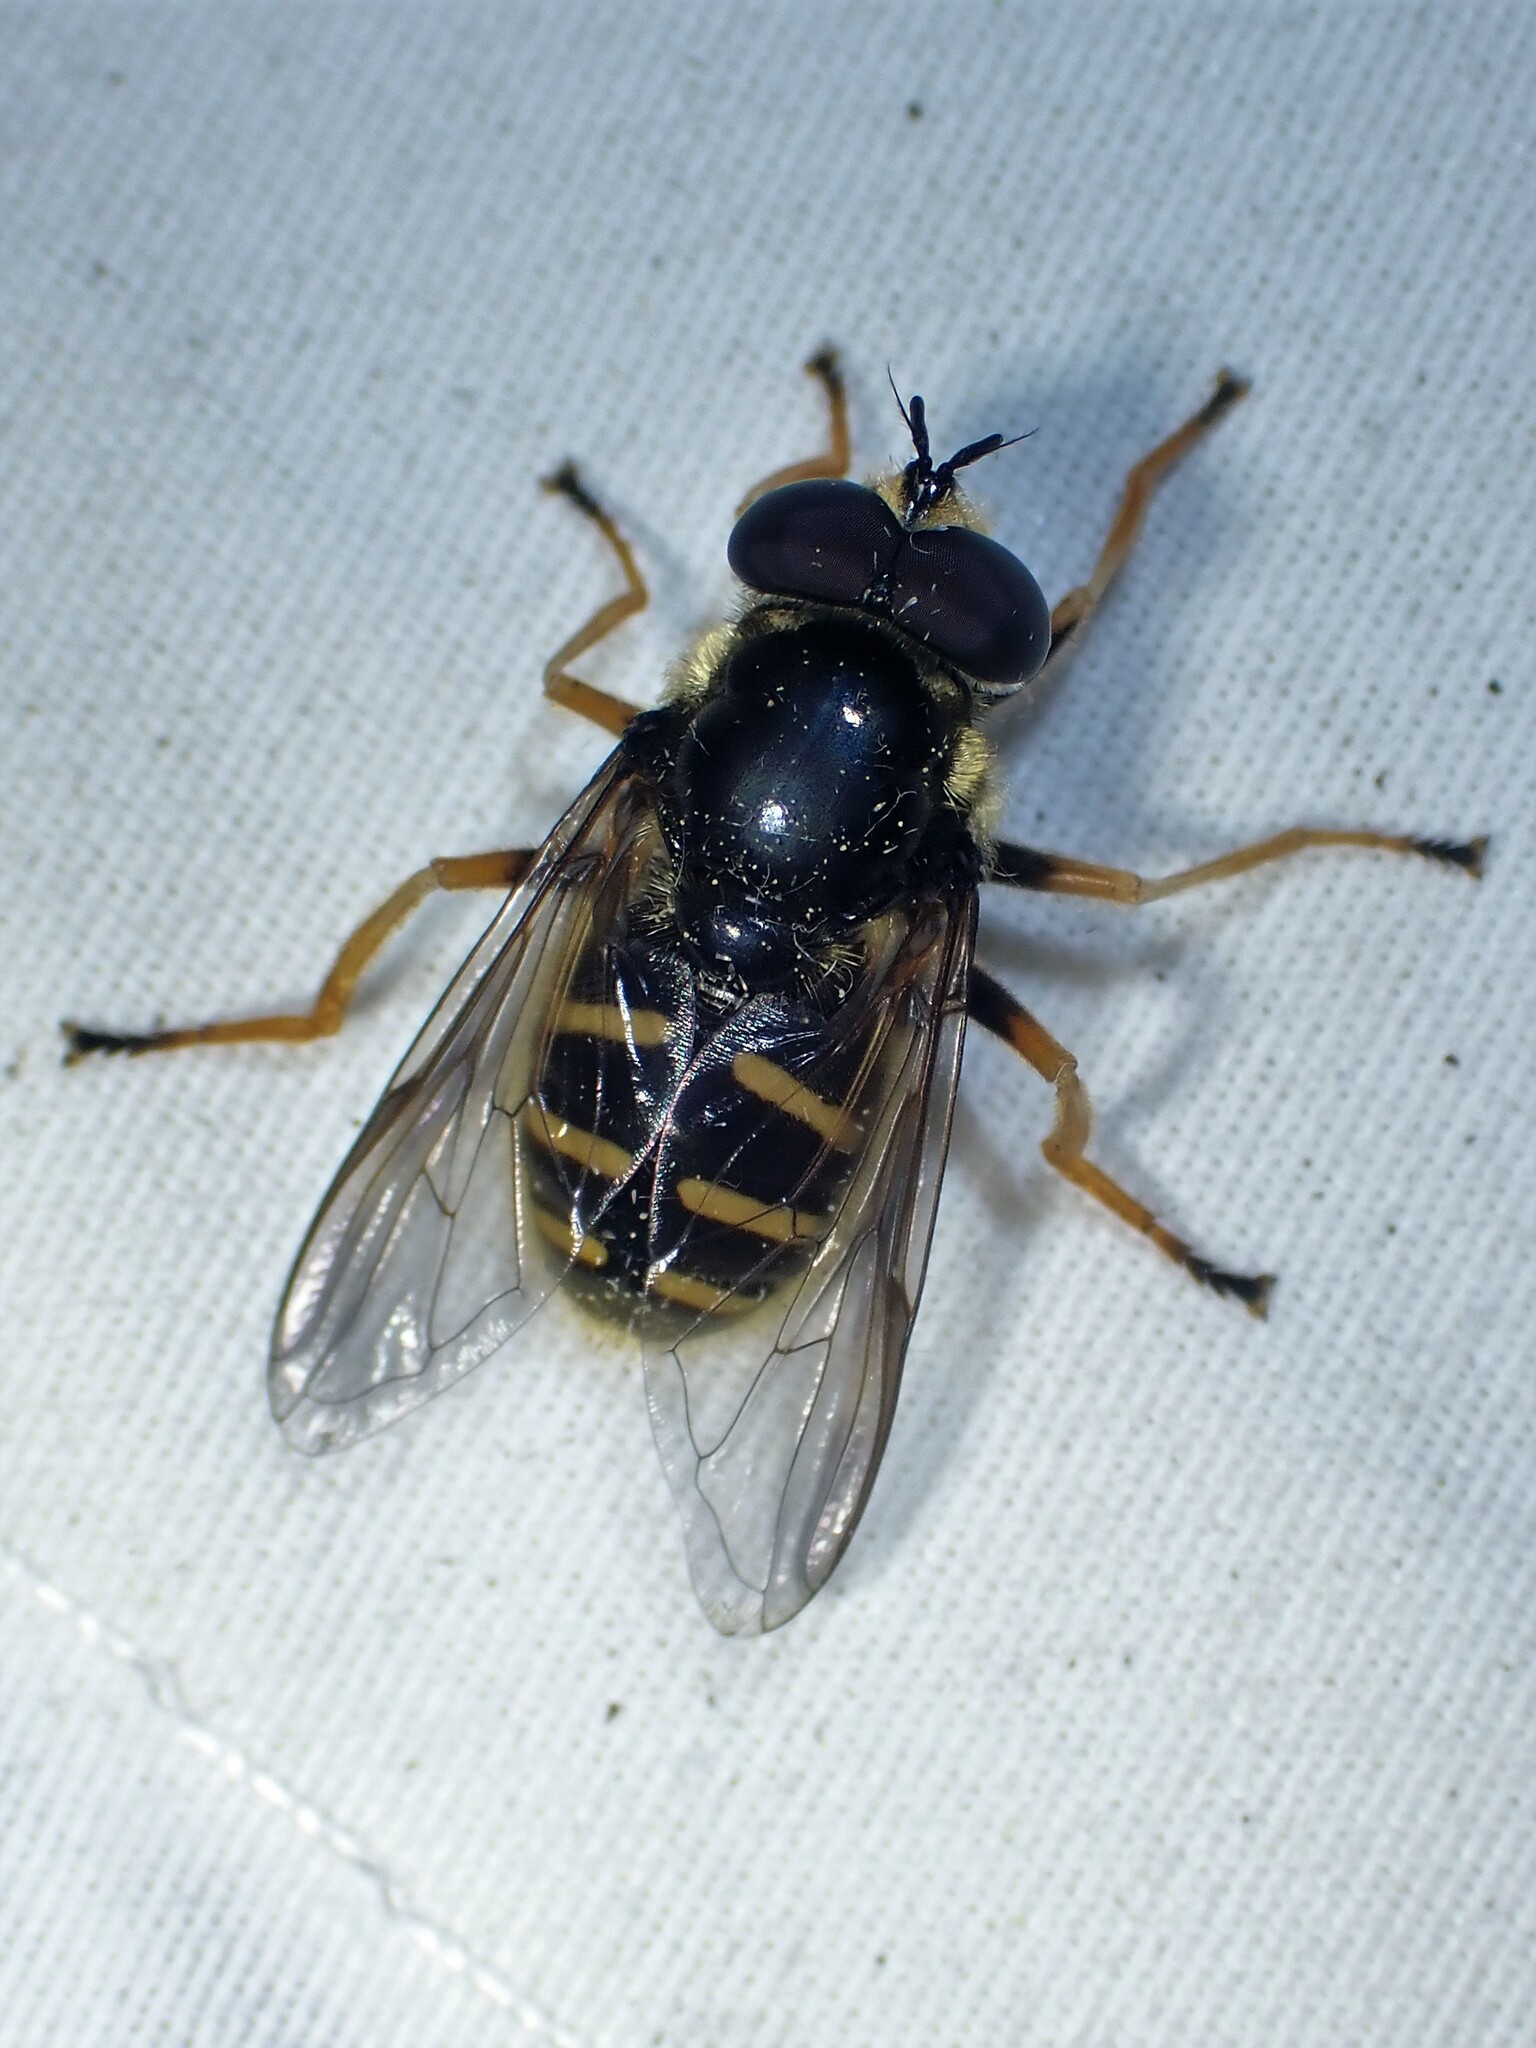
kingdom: Animalia
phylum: Arthropoda
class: Insecta
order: Diptera
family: Syrphidae
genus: Sericomyia
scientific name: Sericomyia chrysotoxoides
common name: Oblique-banded pond fly
